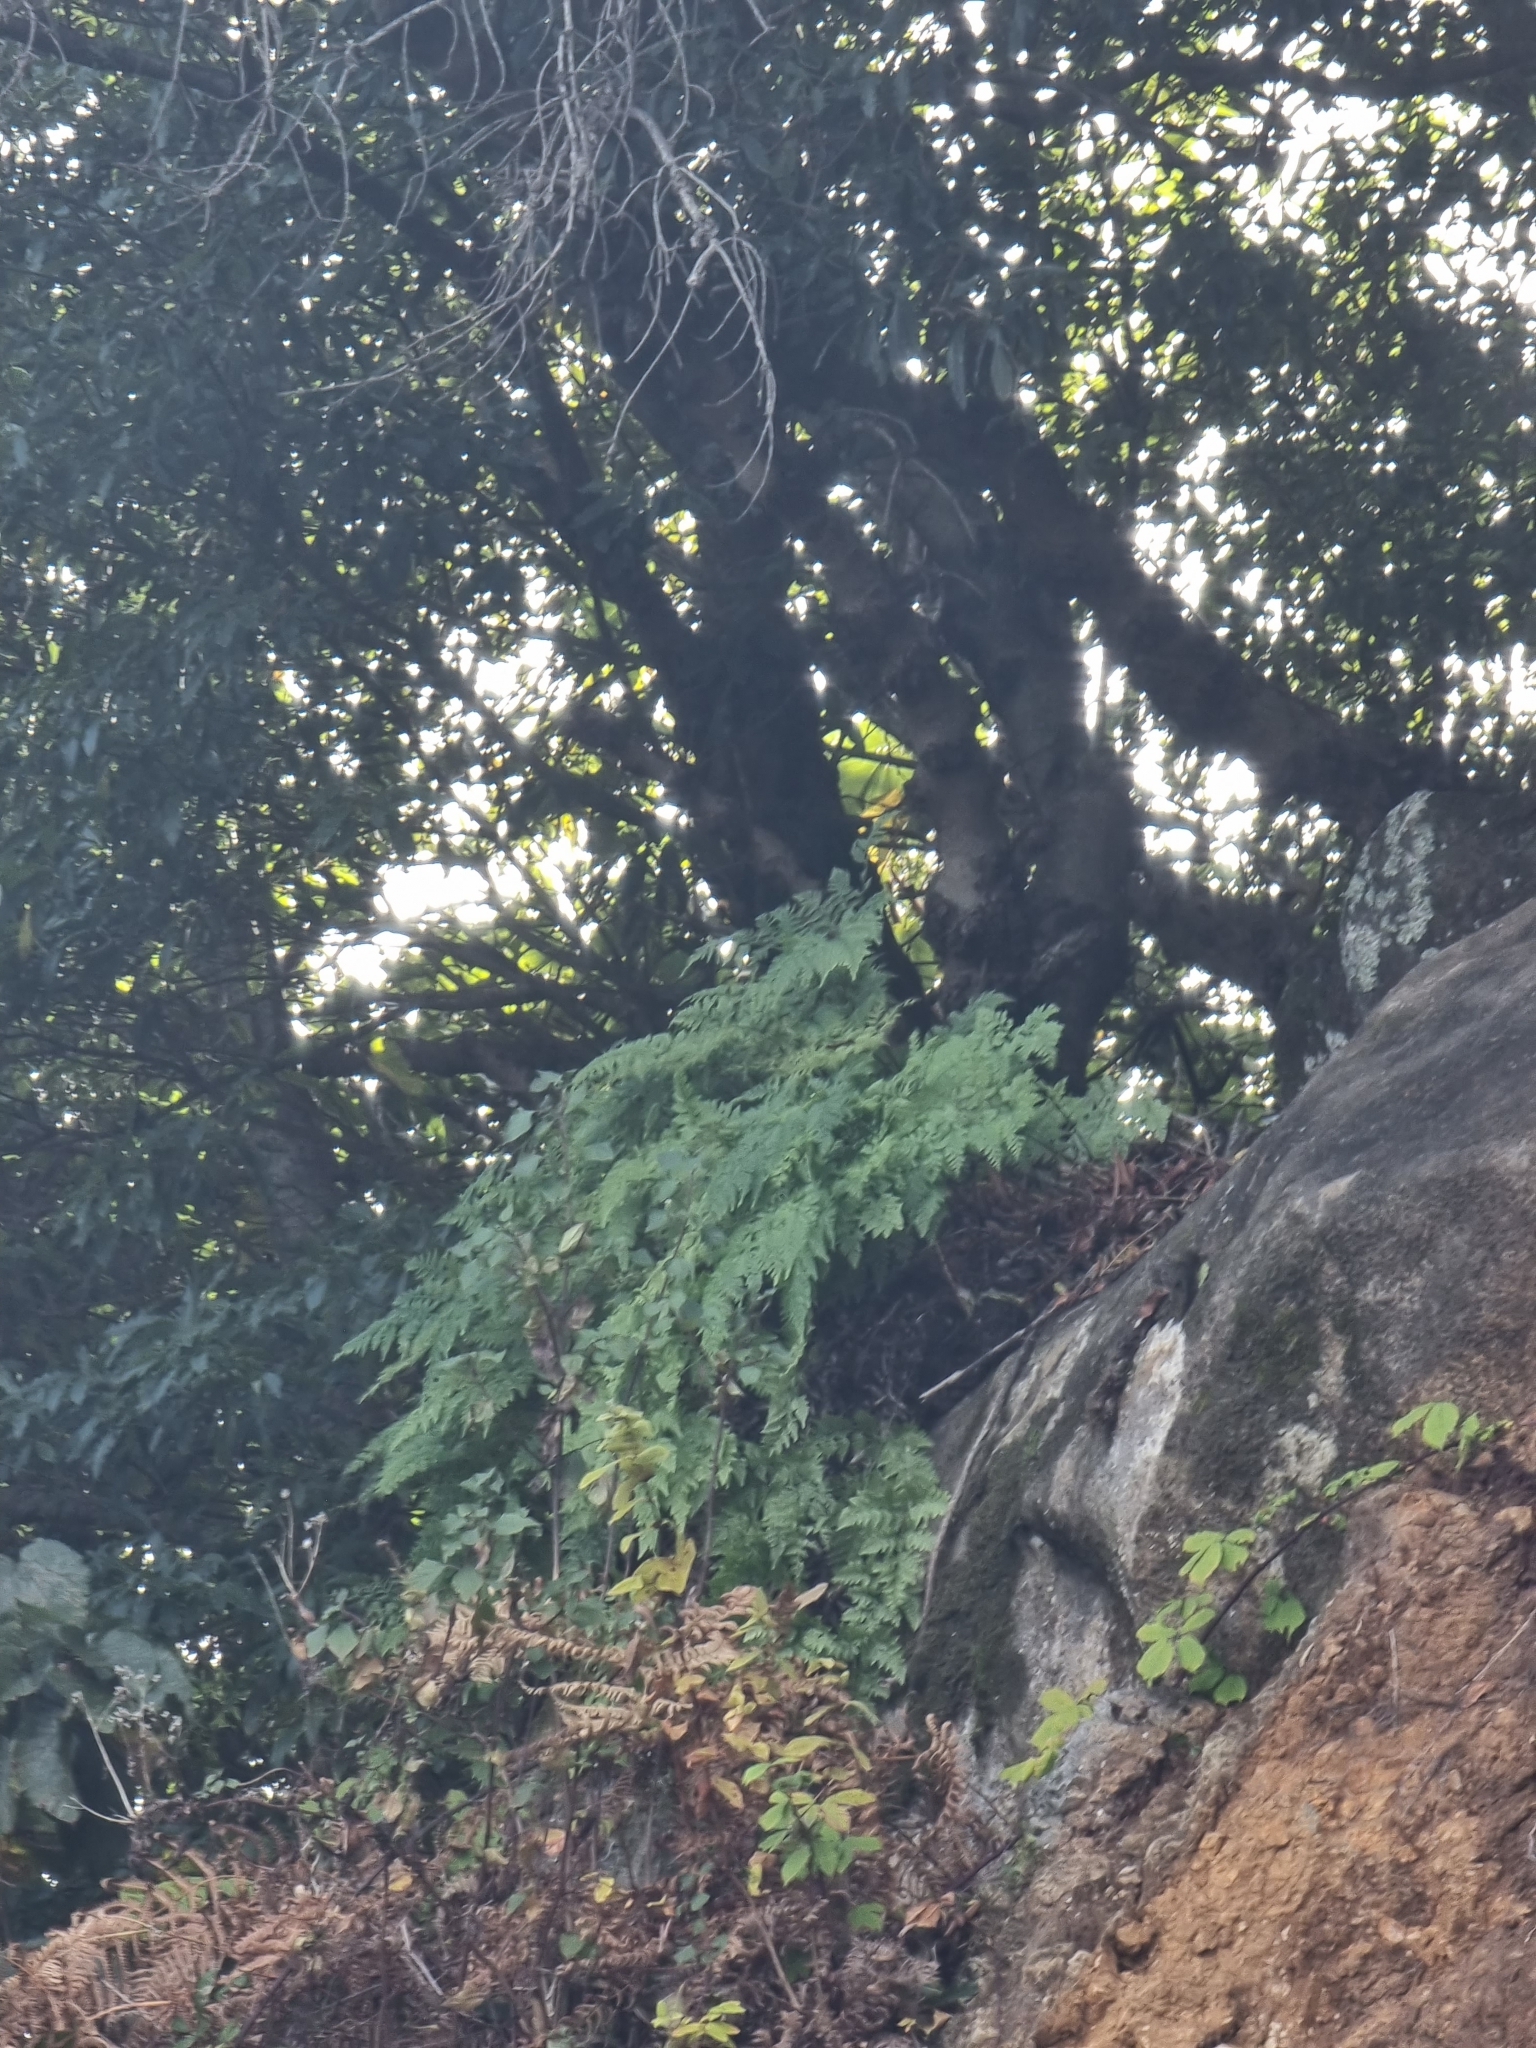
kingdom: Plantae
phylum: Tracheophyta
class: Polypodiopsida
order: Polypodiales
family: Davalliaceae
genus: Davallia
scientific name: Davallia canariensis
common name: Hare's-foot fern
